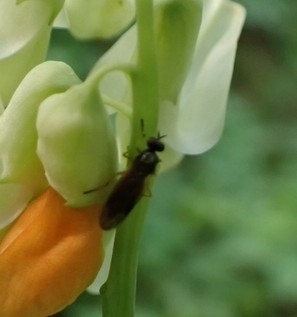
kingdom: Animalia
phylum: Arthropoda
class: Insecta
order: Diptera
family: Stratiomyidae
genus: Beris
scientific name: Beris chalybata
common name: Murky-legged black legionnaire
